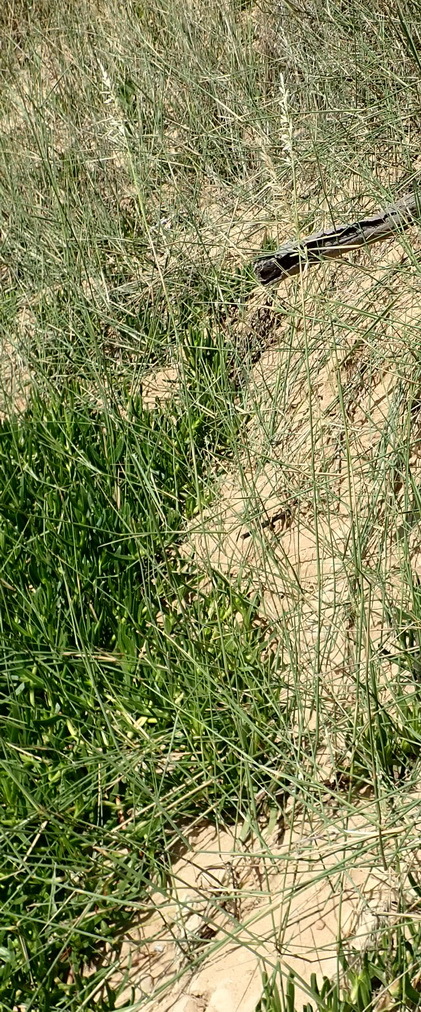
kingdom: Plantae
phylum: Tracheophyta
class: Liliopsida
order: Poales
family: Poaceae
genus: Ehrharta
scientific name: Ehrharta villosa
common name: Pyp grass
